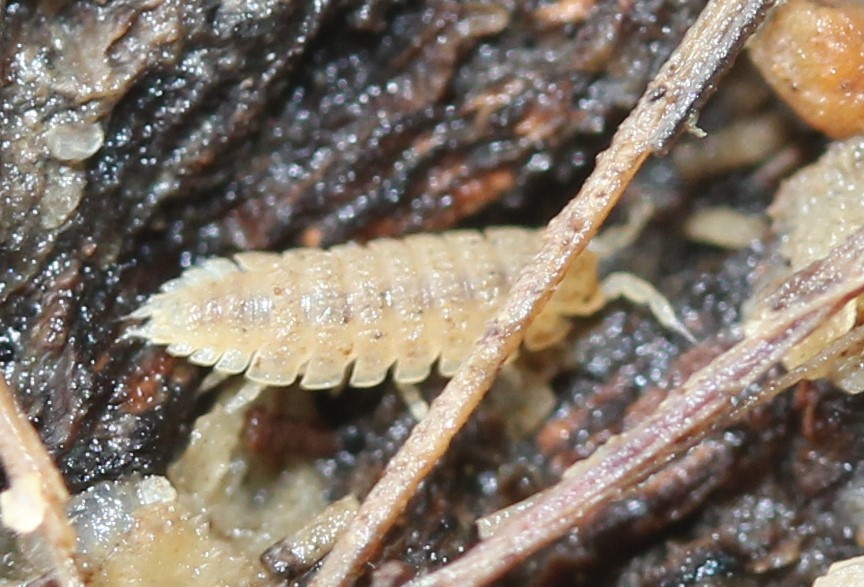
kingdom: Animalia
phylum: Arthropoda
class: Malacostraca
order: Isopoda
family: Trichoniscidae
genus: Haplophthalmus
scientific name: Haplophthalmus danicus
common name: Pillbug
